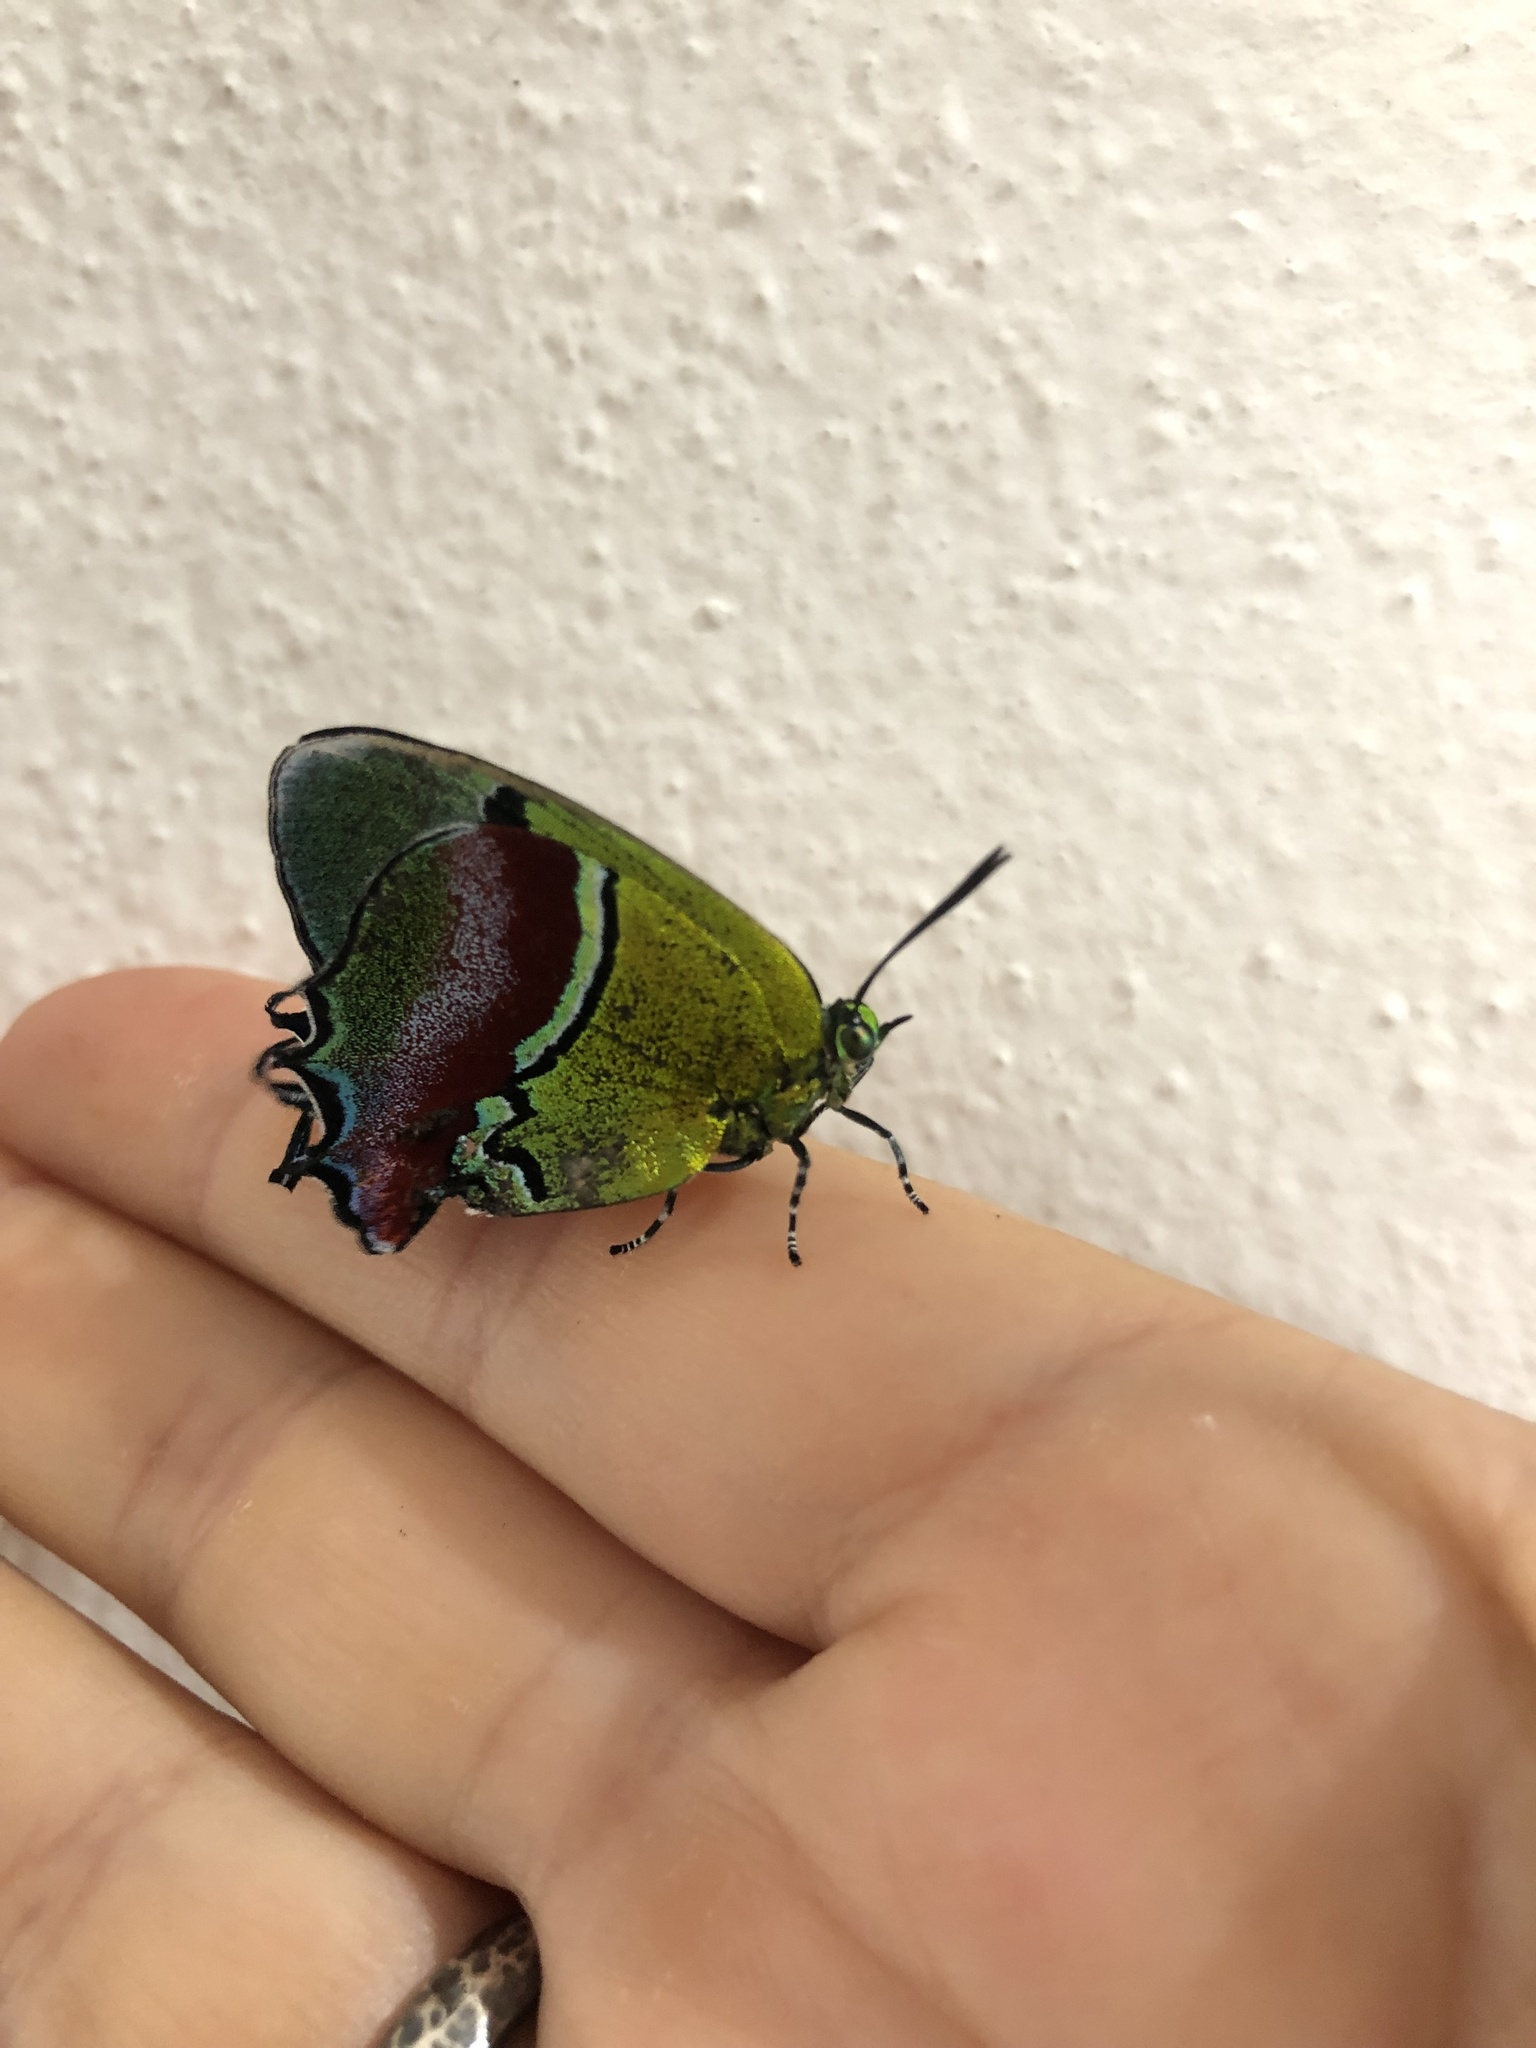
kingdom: Animalia
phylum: Arthropoda
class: Insecta
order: Lepidoptera
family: Lycaenidae
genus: Evenus
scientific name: Evenus regalis
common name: Regal hairstreak
